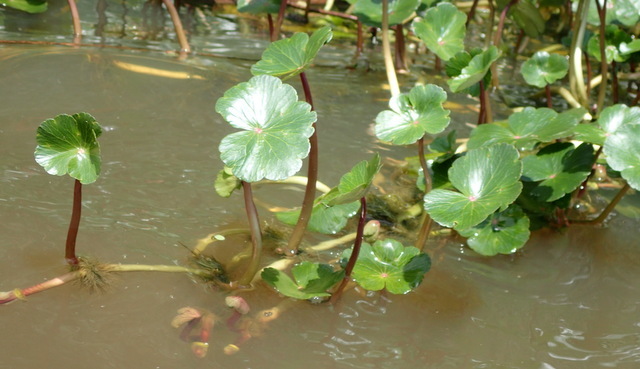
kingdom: Plantae
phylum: Tracheophyta
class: Magnoliopsida
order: Apiales
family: Araliaceae
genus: Hydrocotyle
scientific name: Hydrocotyle ranunculoides
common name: Floating pennywort
